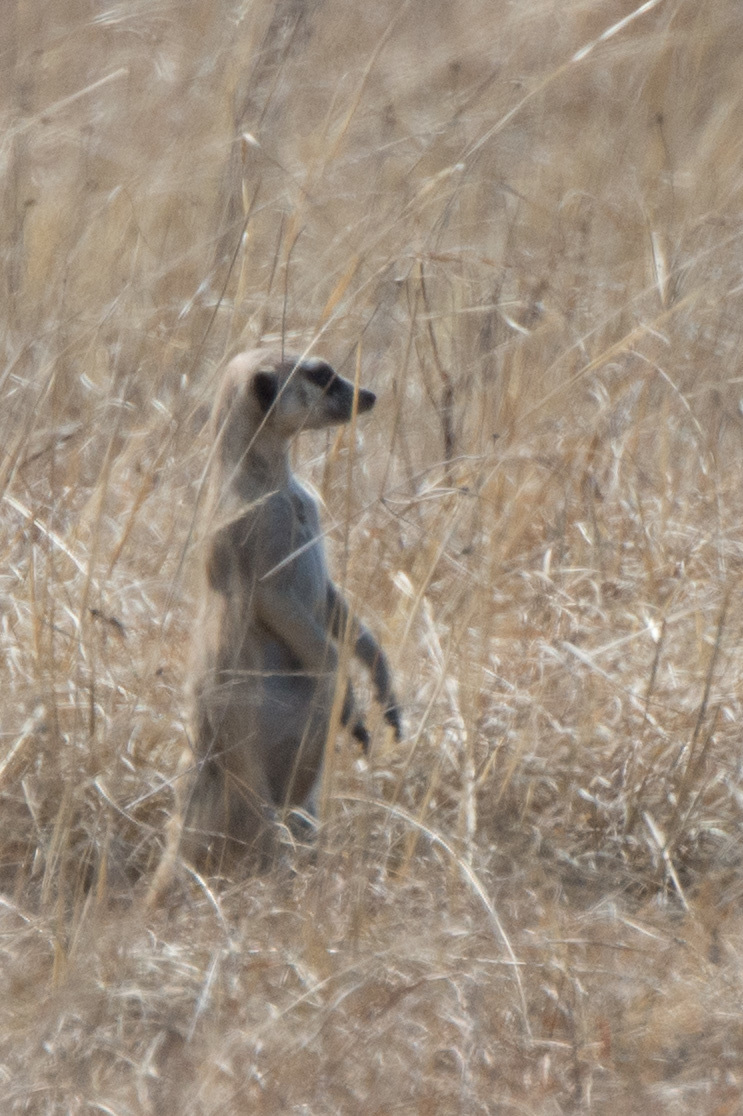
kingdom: Animalia
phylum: Chordata
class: Mammalia
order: Carnivora
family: Herpestidae
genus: Suricata
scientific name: Suricata suricatta
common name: Meerkat
